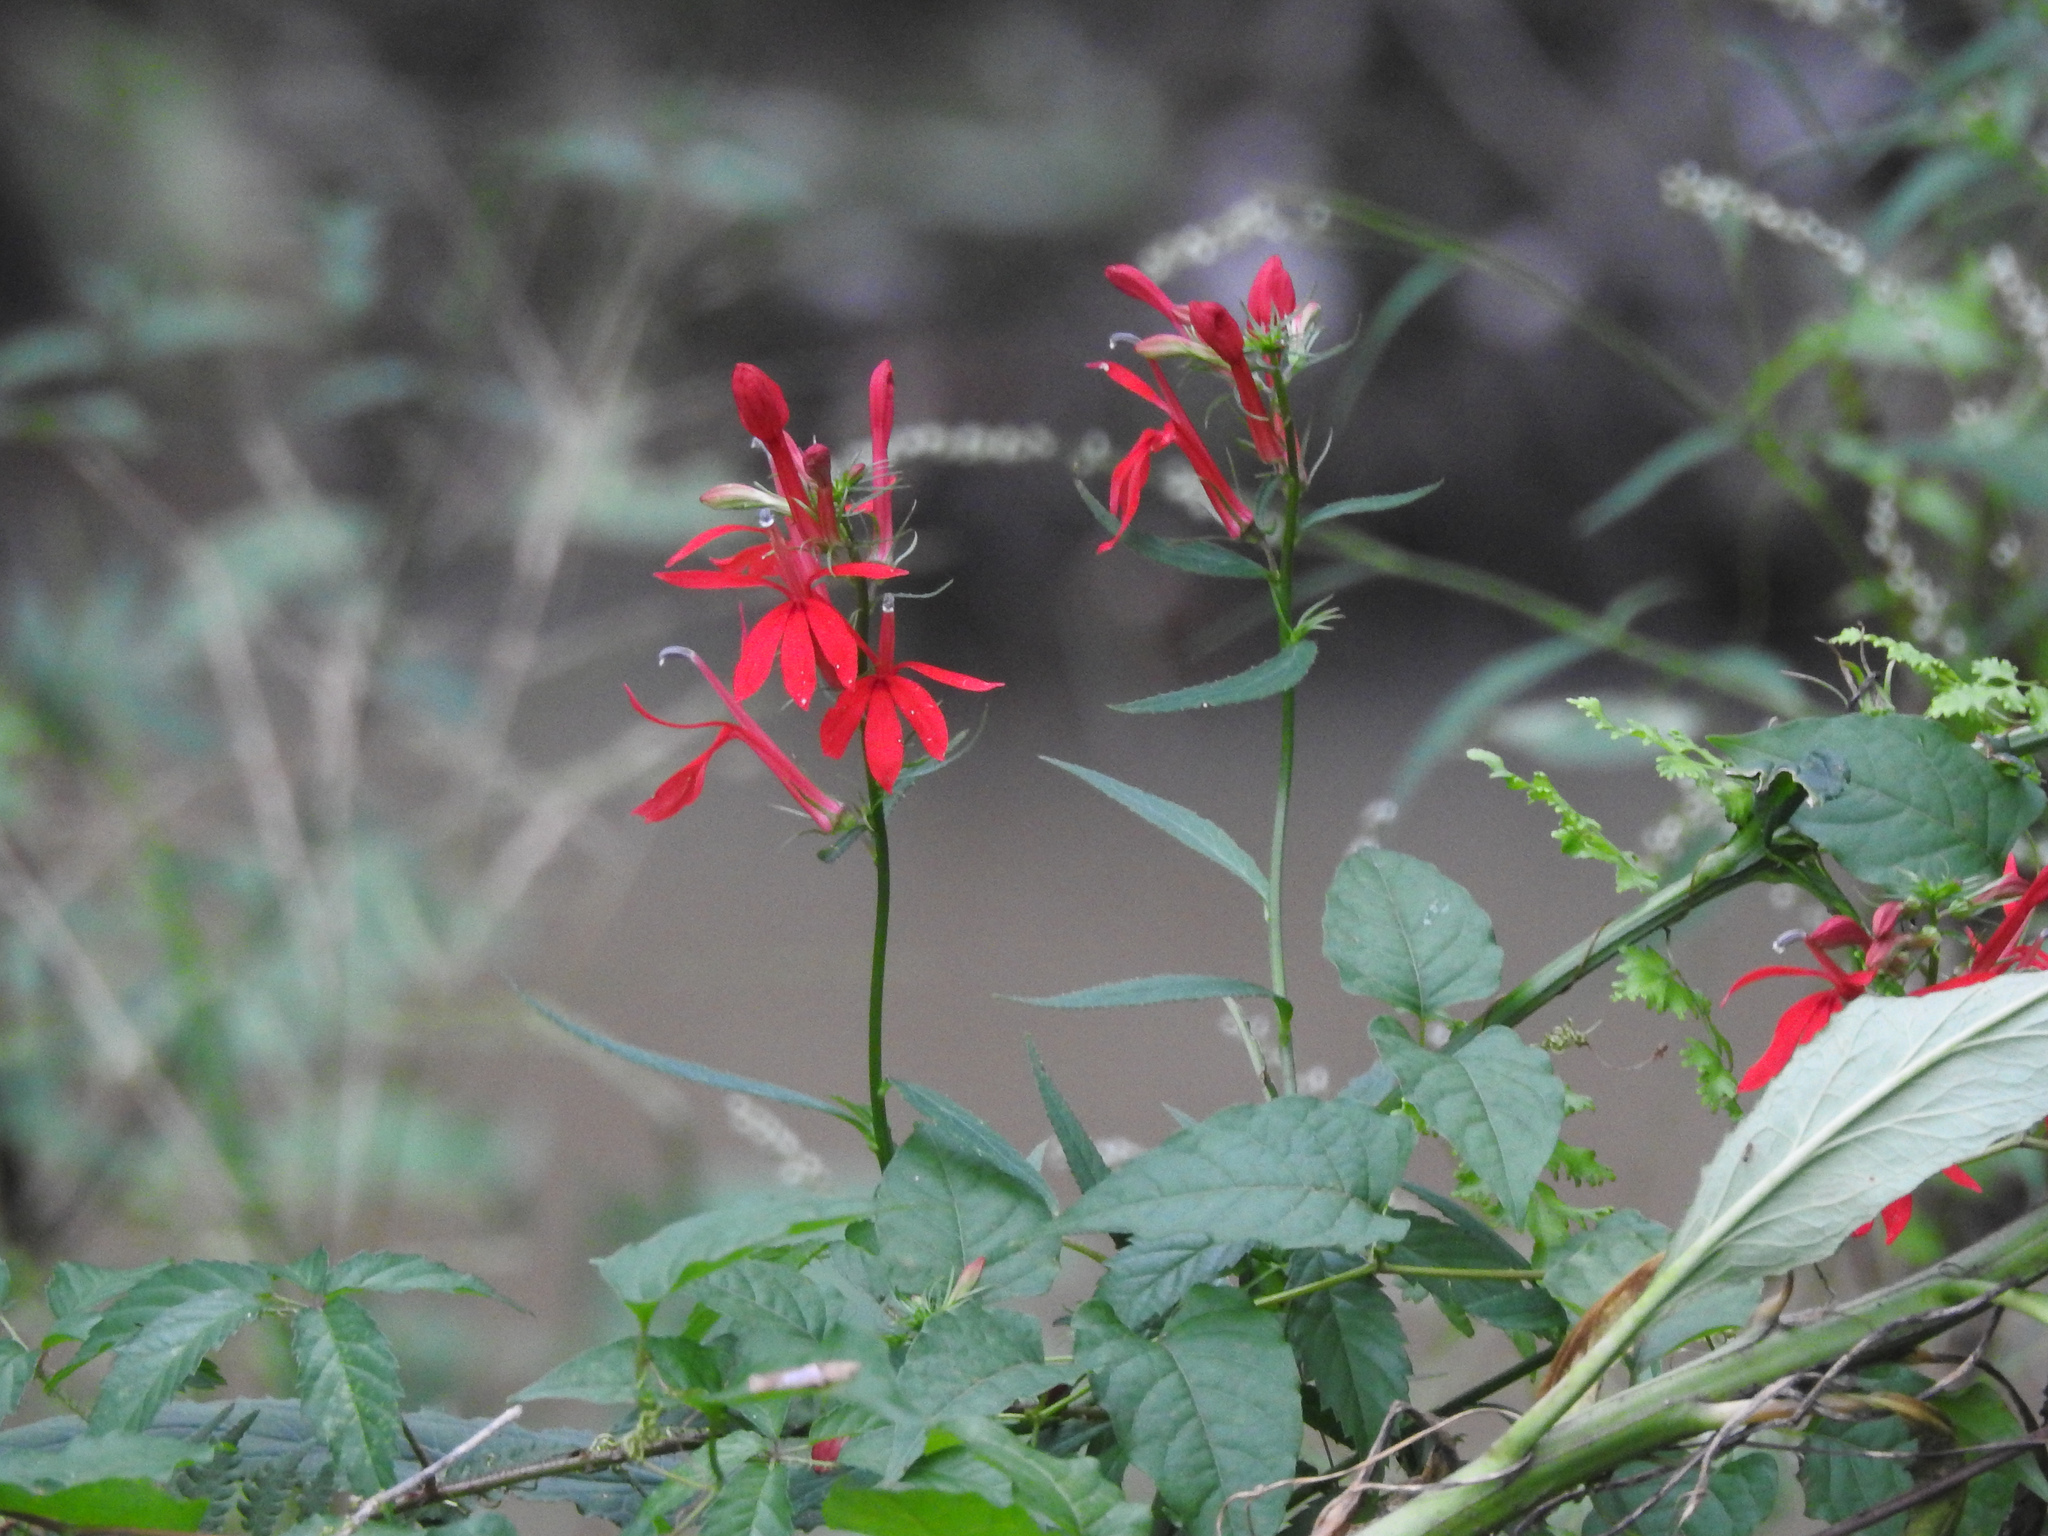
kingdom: Plantae
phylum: Tracheophyta
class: Magnoliopsida
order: Asterales
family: Campanulaceae
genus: Lobelia
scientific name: Lobelia cardinalis
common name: Cardinal flower
